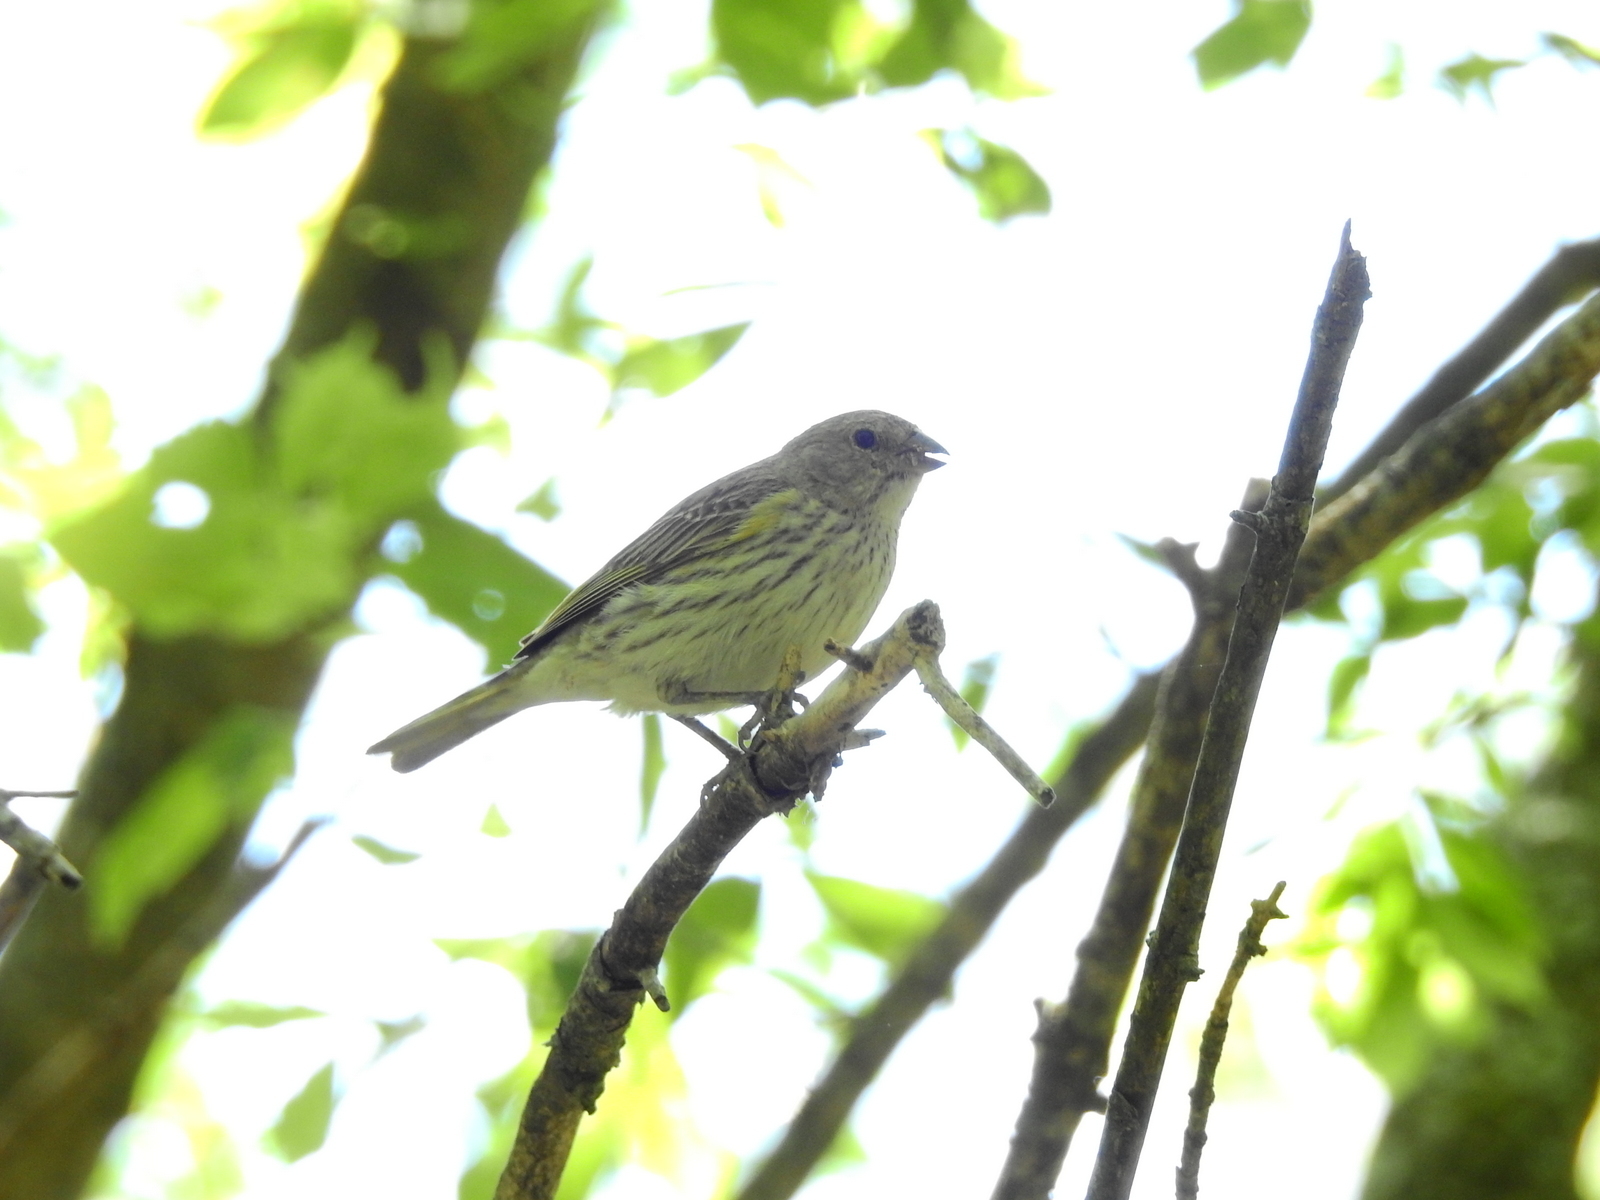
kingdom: Animalia
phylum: Chordata
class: Aves
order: Passeriformes
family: Thraupidae
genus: Sicalis
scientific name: Sicalis flaveola
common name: Saffron finch
